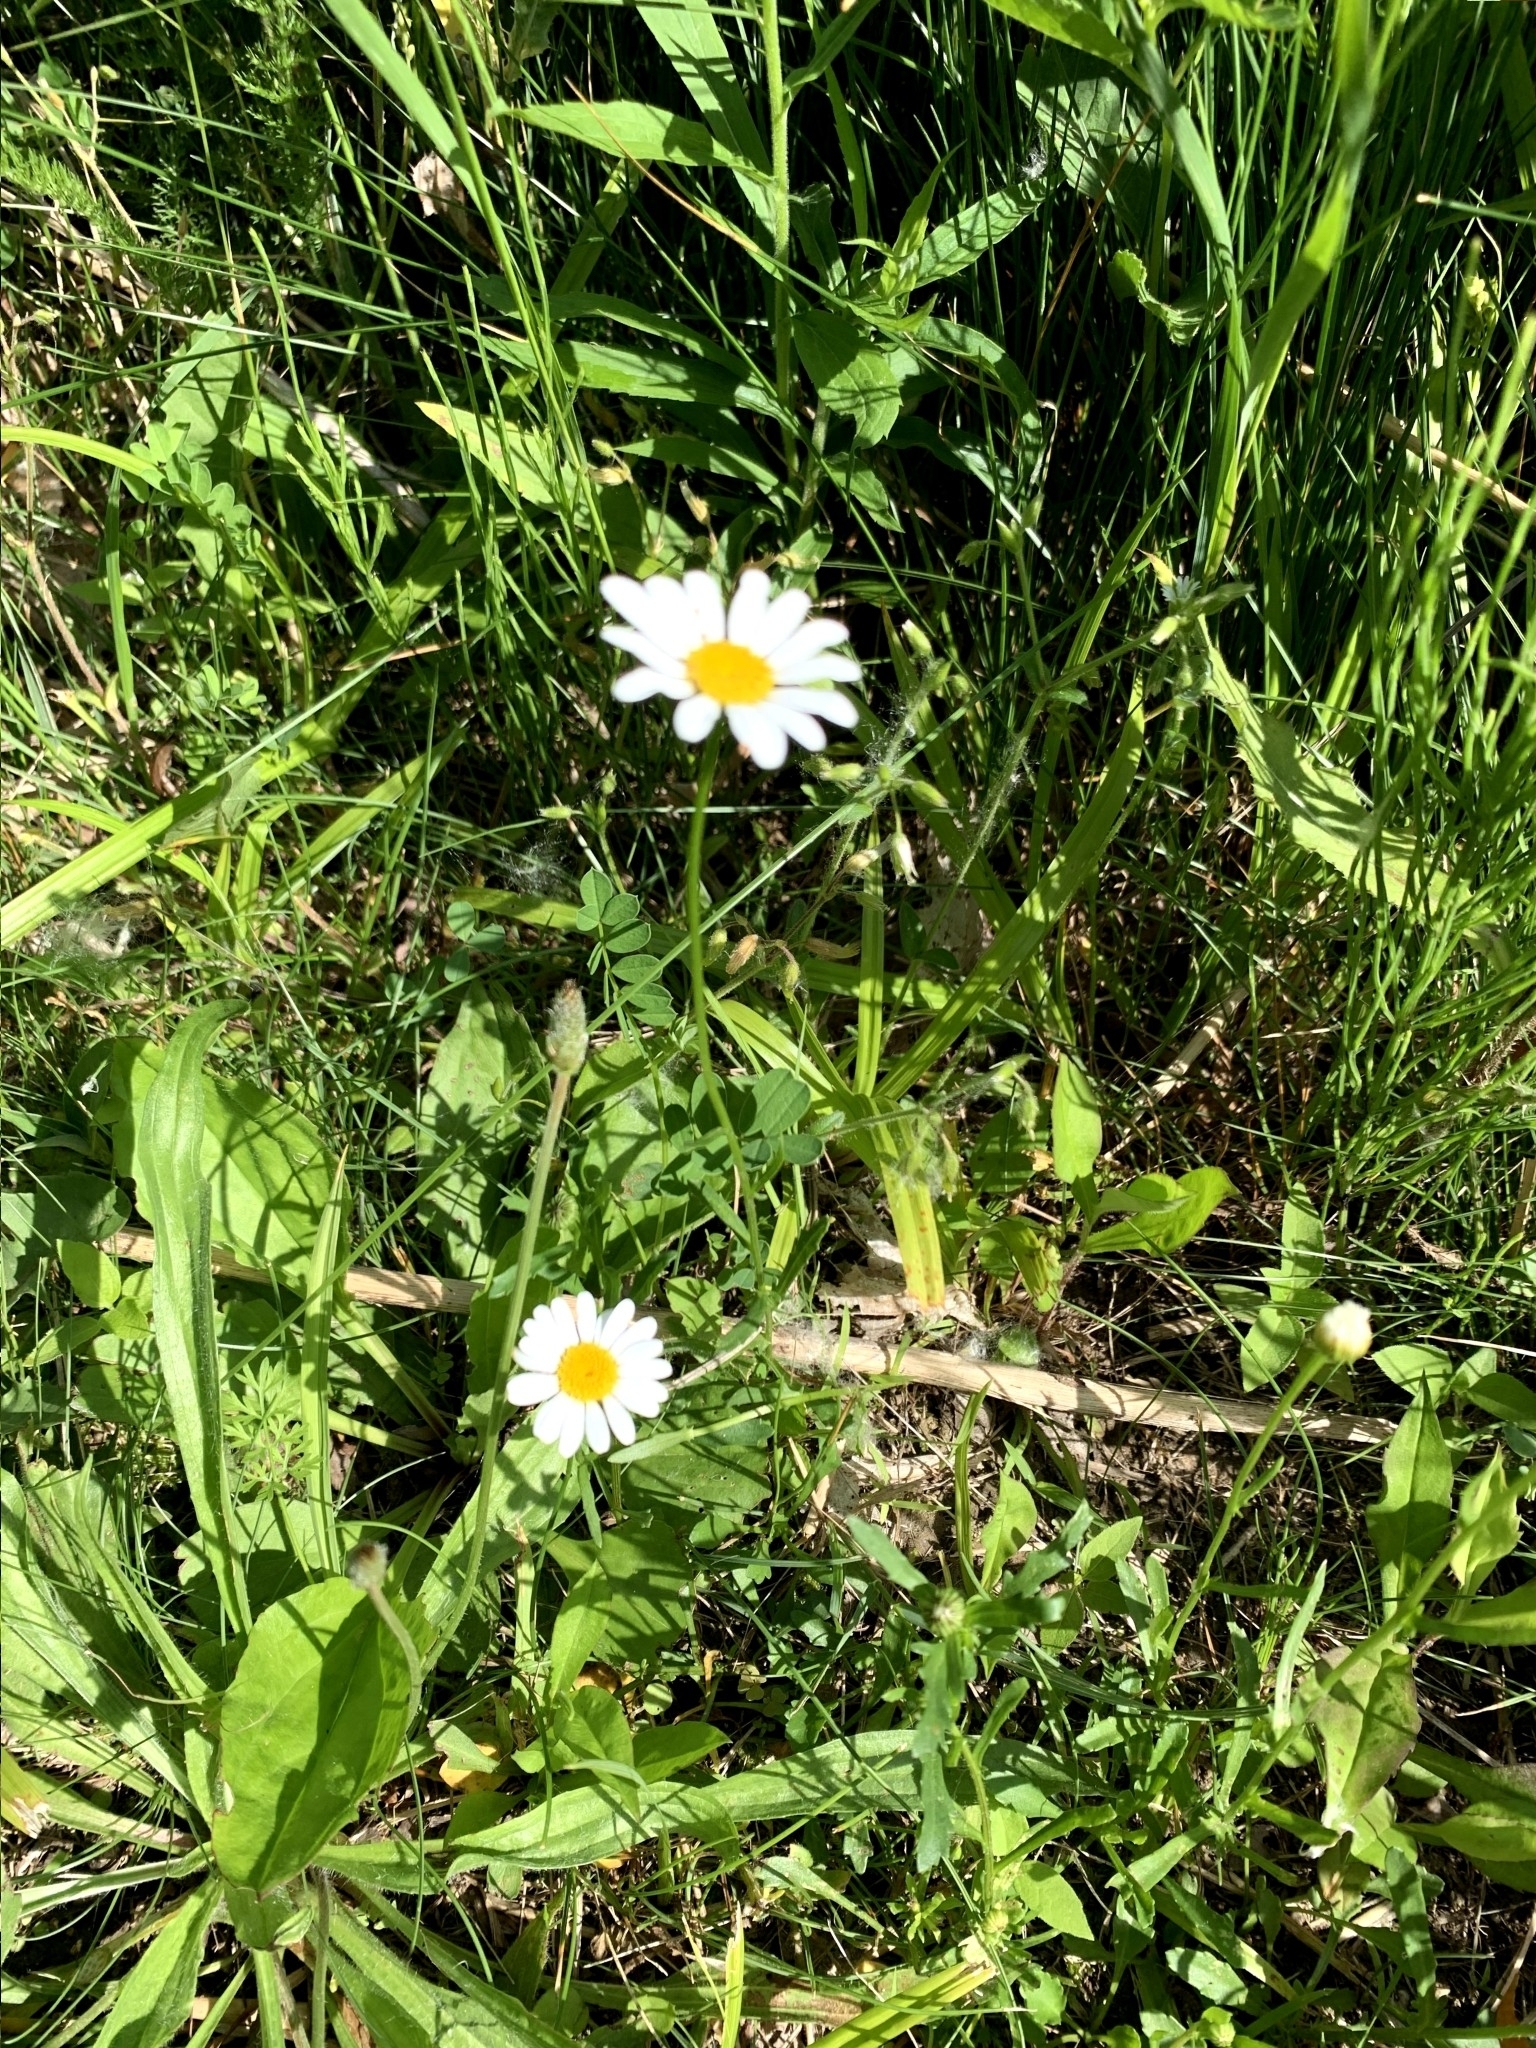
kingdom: Plantae
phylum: Tracheophyta
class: Magnoliopsida
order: Asterales
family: Asteraceae
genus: Leucanthemum
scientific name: Leucanthemum vulgare
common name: Oxeye daisy
